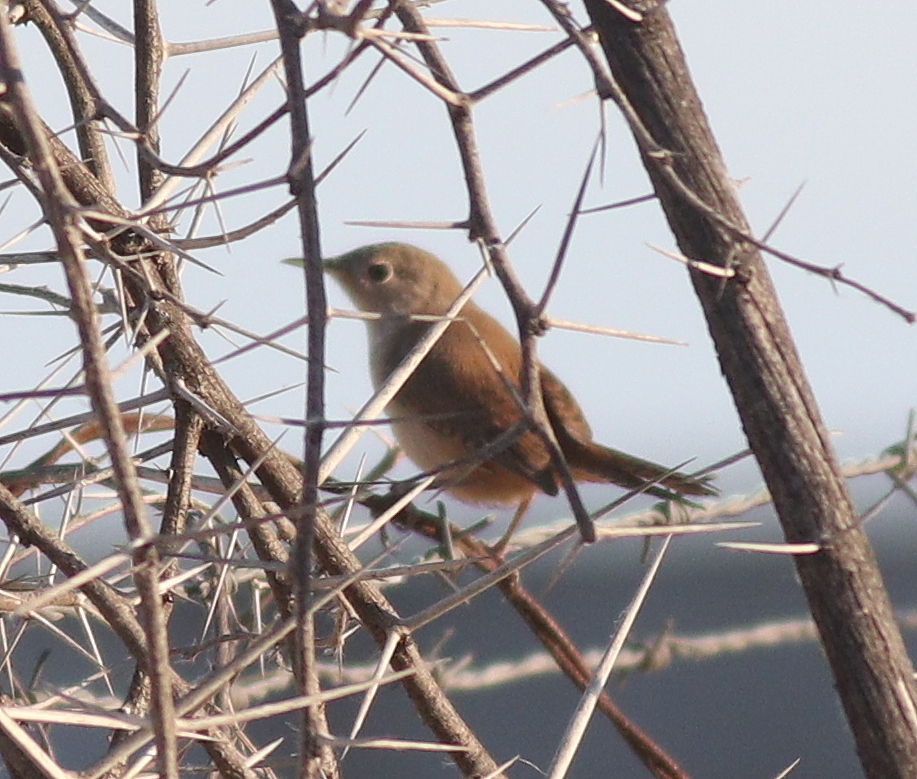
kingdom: Animalia
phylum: Chordata
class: Aves
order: Passeriformes
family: Troglodytidae
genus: Troglodytes
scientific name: Troglodytes aedon
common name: House wren
